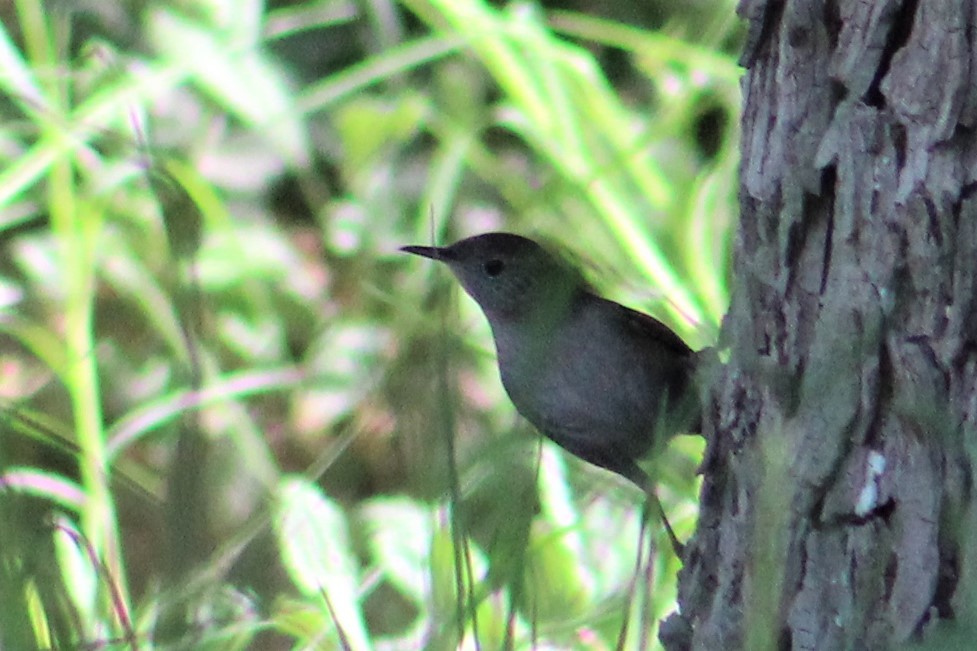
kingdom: Animalia
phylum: Chordata
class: Aves
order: Passeriformes
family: Troglodytidae
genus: Troglodytes
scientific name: Troglodytes aedon
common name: House wren
